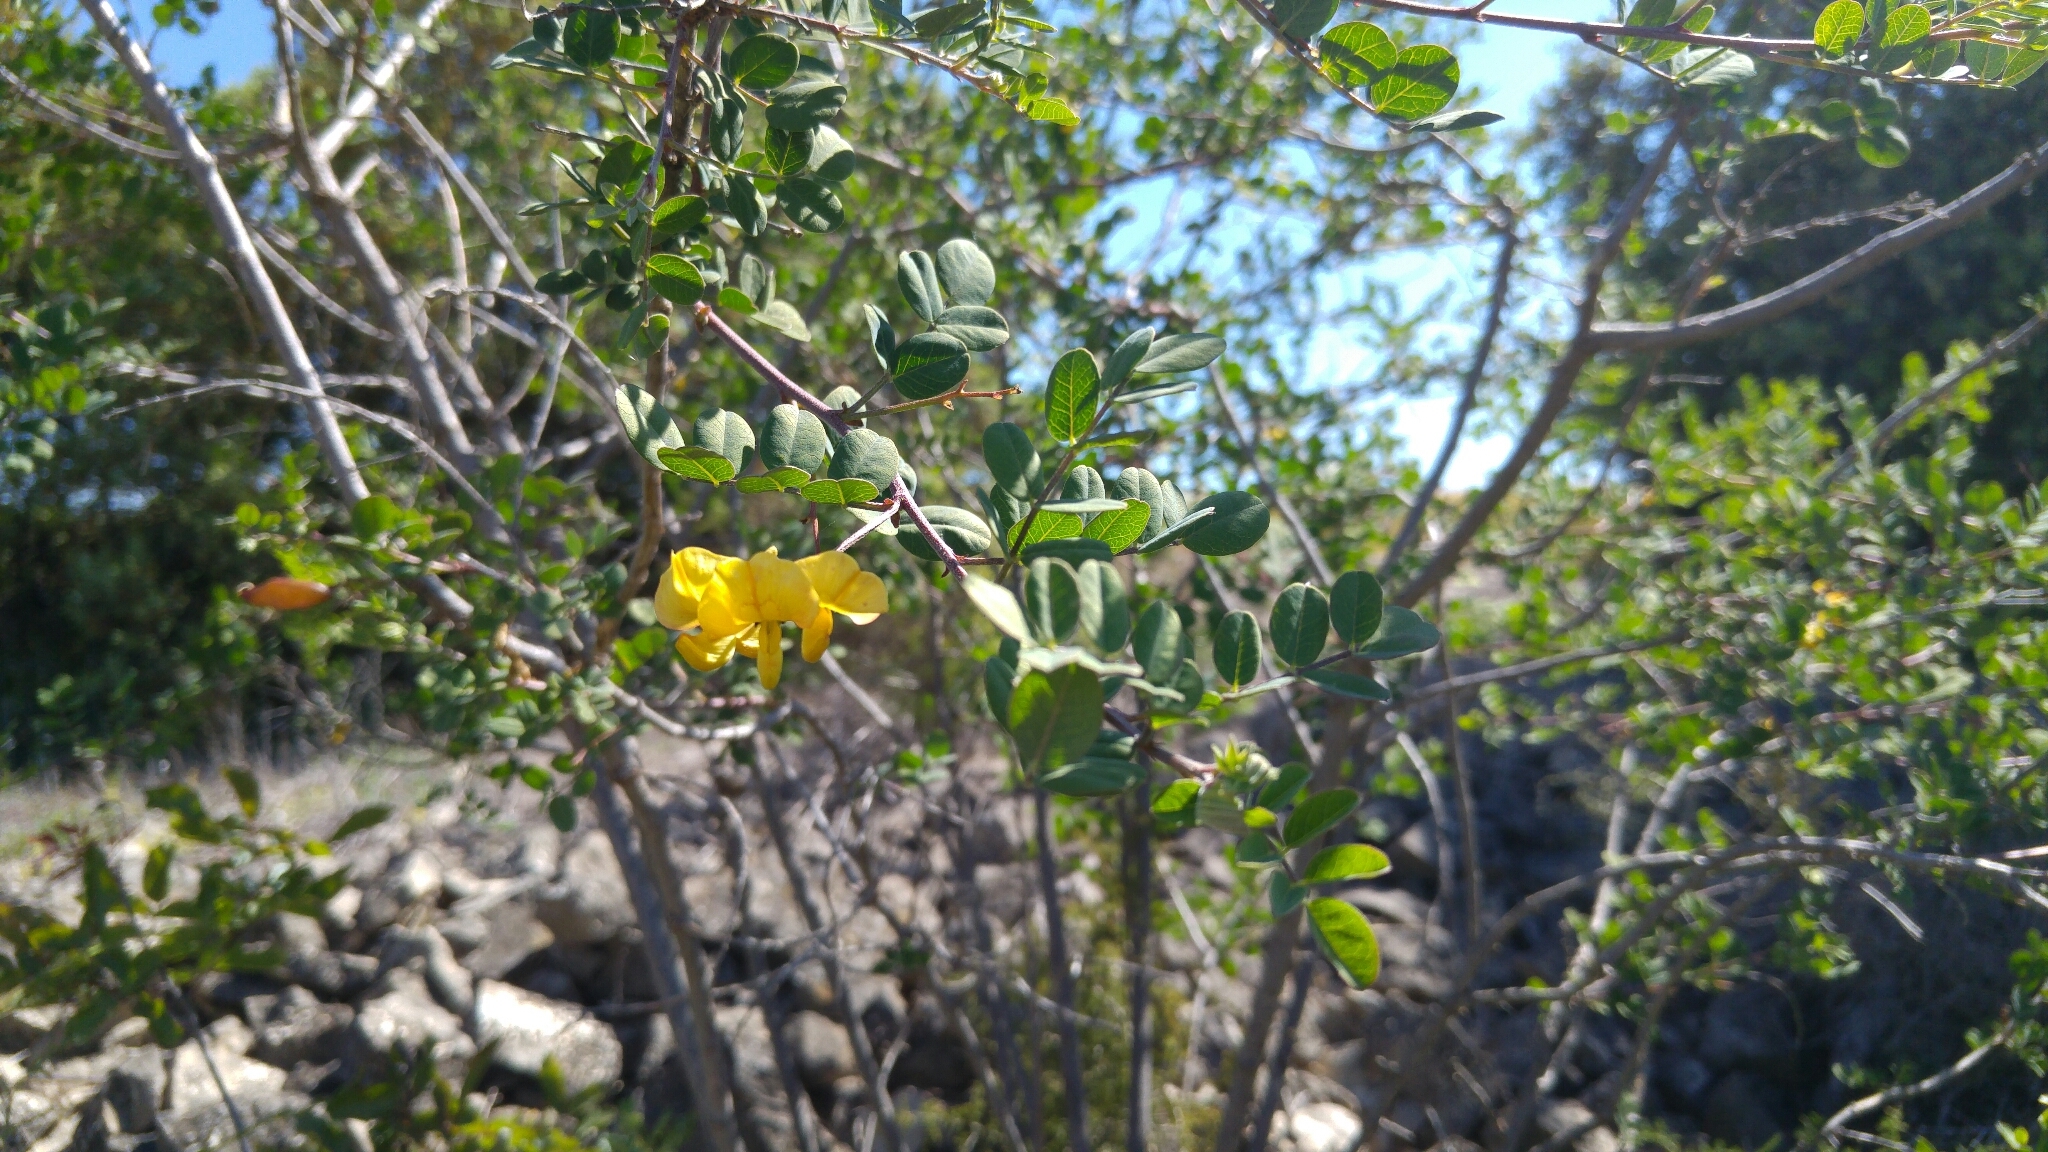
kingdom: Plantae
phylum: Tracheophyta
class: Magnoliopsida
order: Fabales
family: Fabaceae
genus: Colutea
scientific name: Colutea arborescens
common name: Bladder-senna
